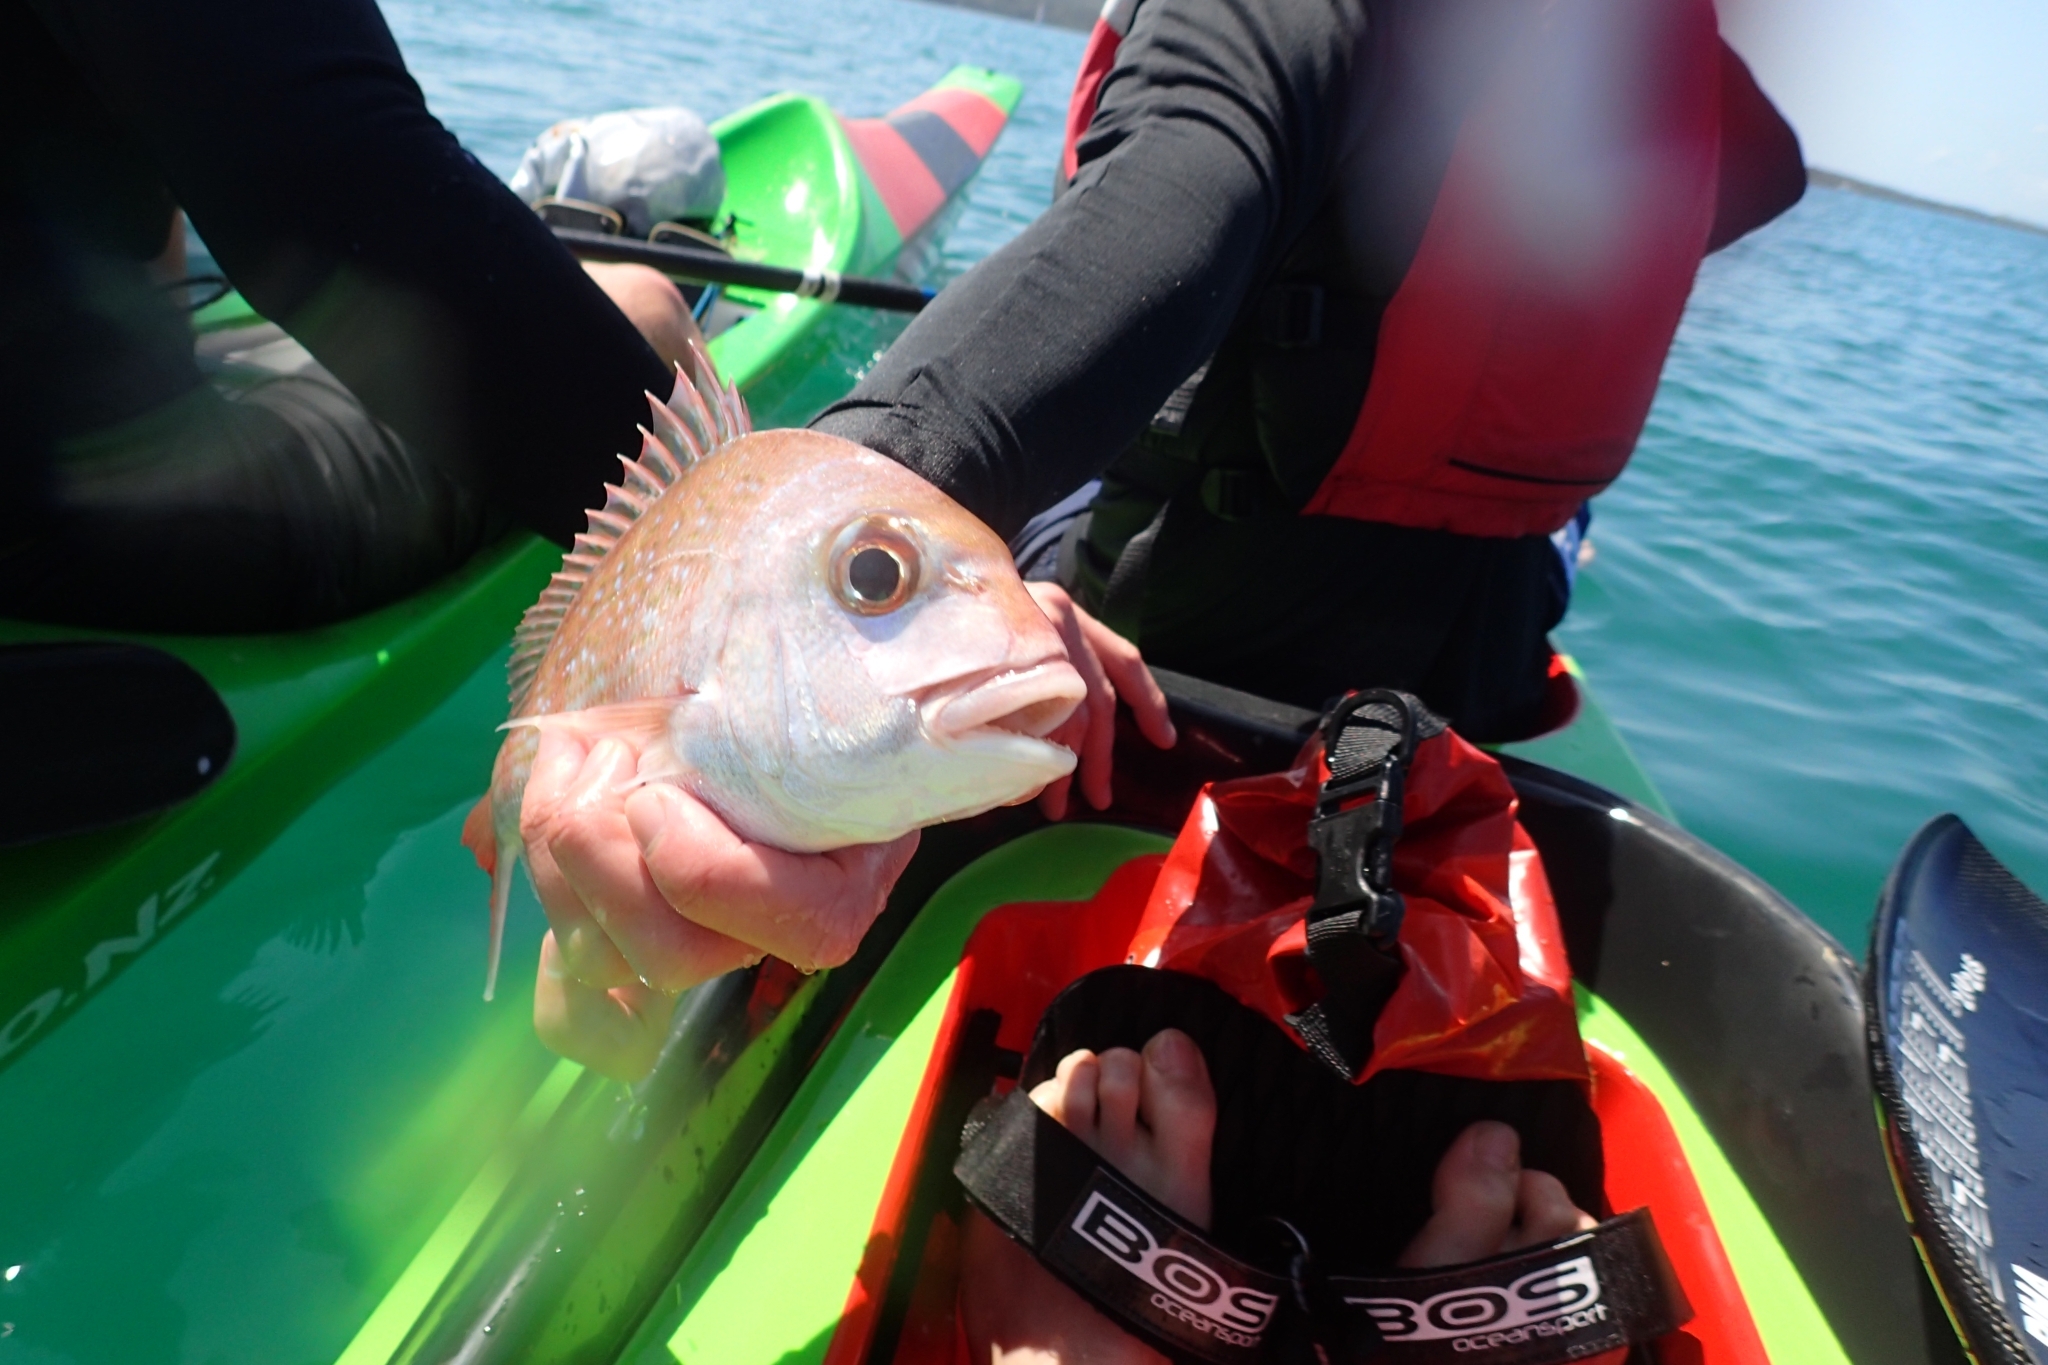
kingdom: Animalia
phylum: Chordata
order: Perciformes
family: Sparidae
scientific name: Sparidae
